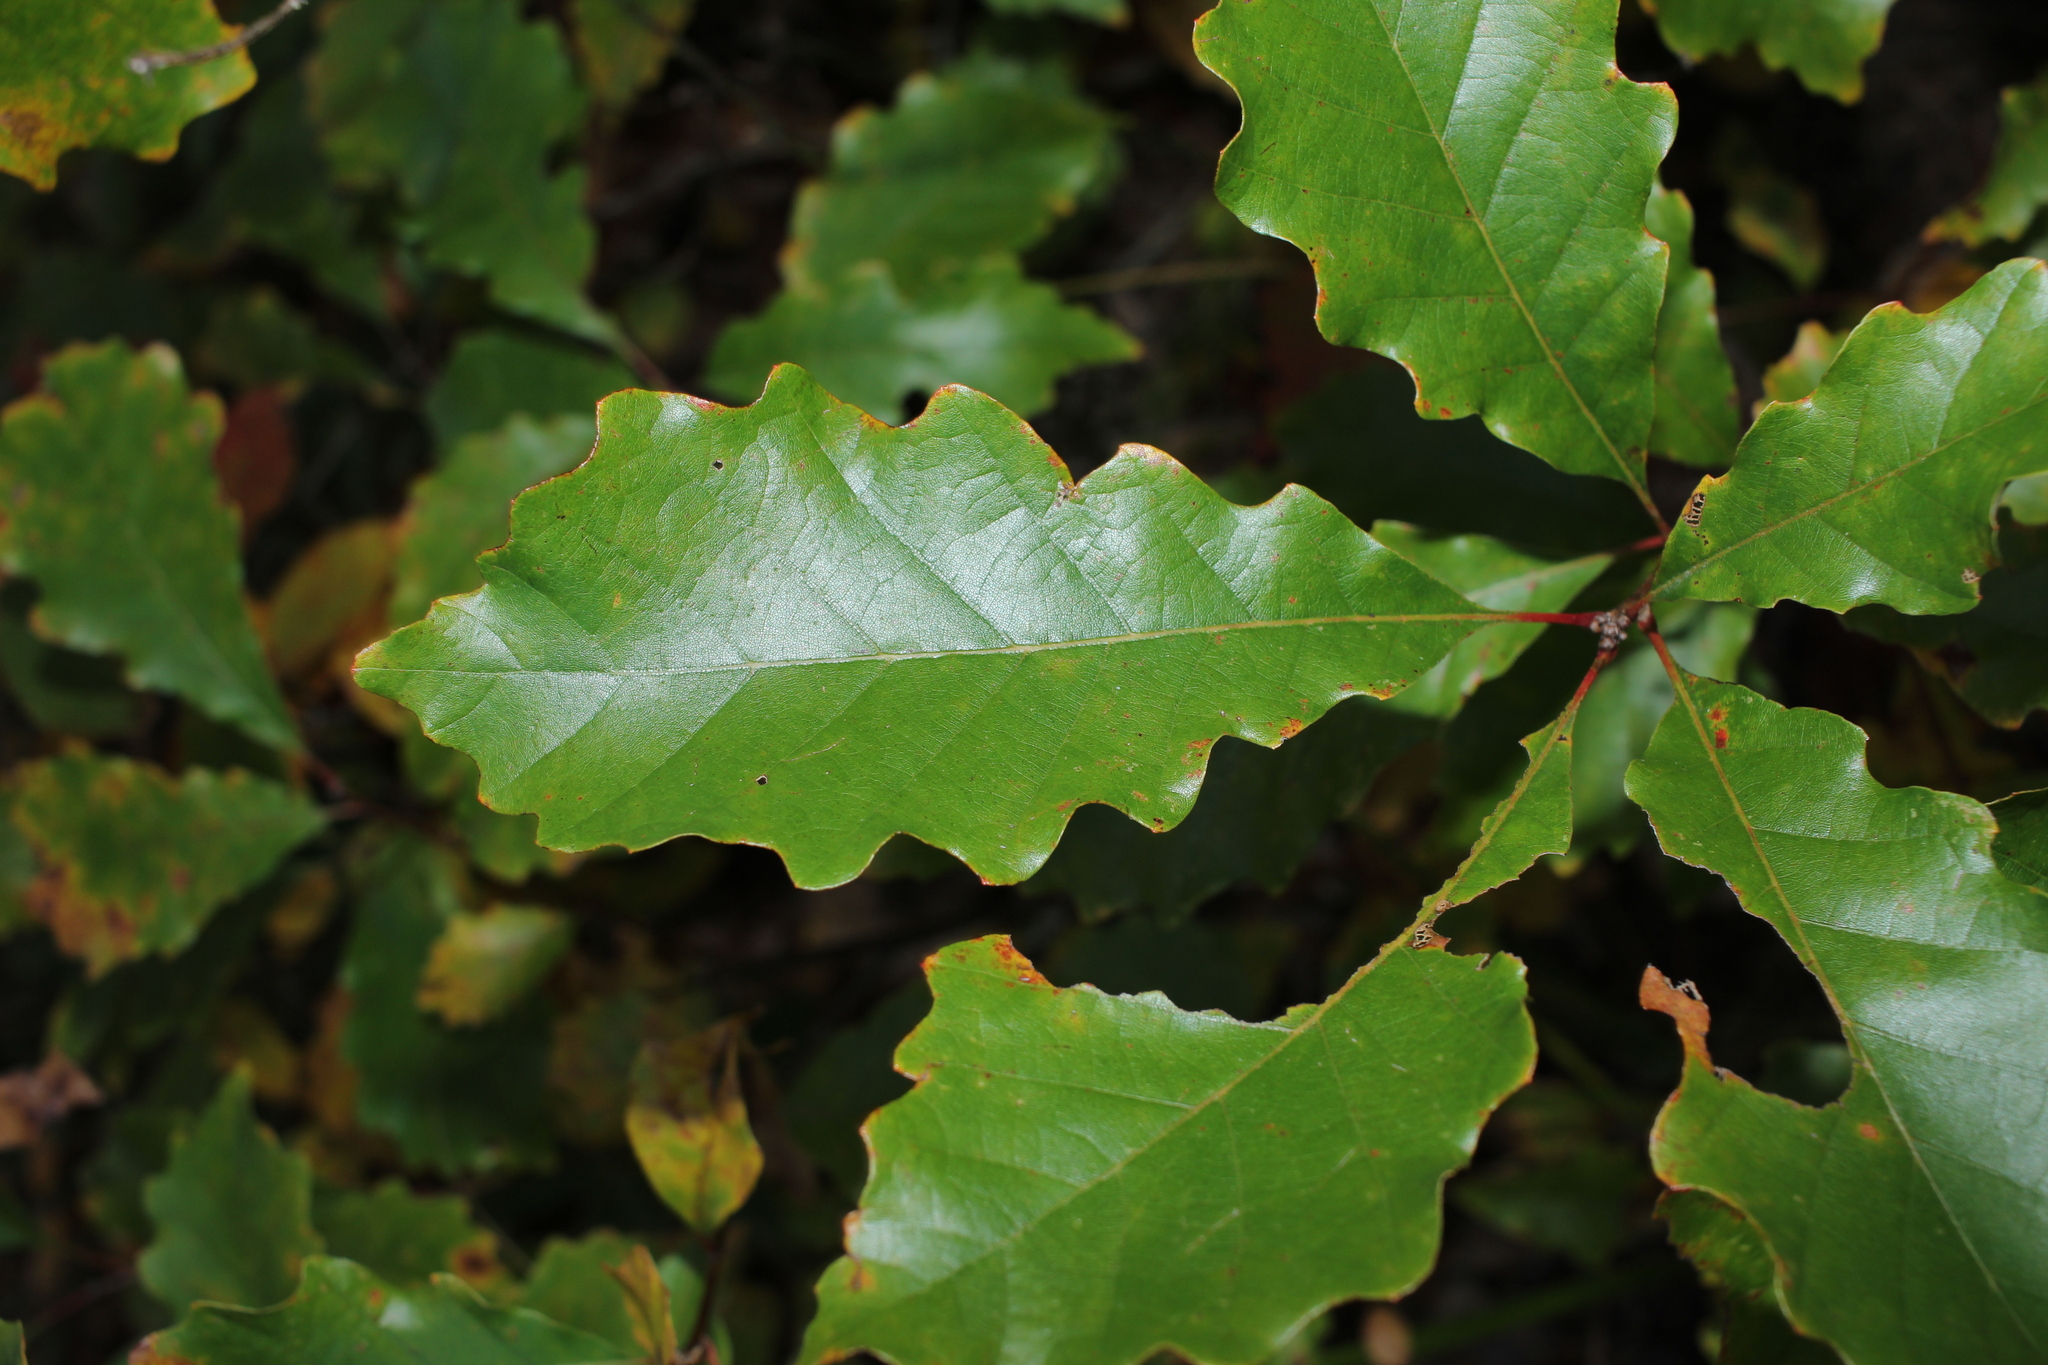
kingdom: Plantae
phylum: Tracheophyta
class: Magnoliopsida
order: Fagales
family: Fagaceae
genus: Quercus
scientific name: Quercus bicolor
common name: Swamp white oak
